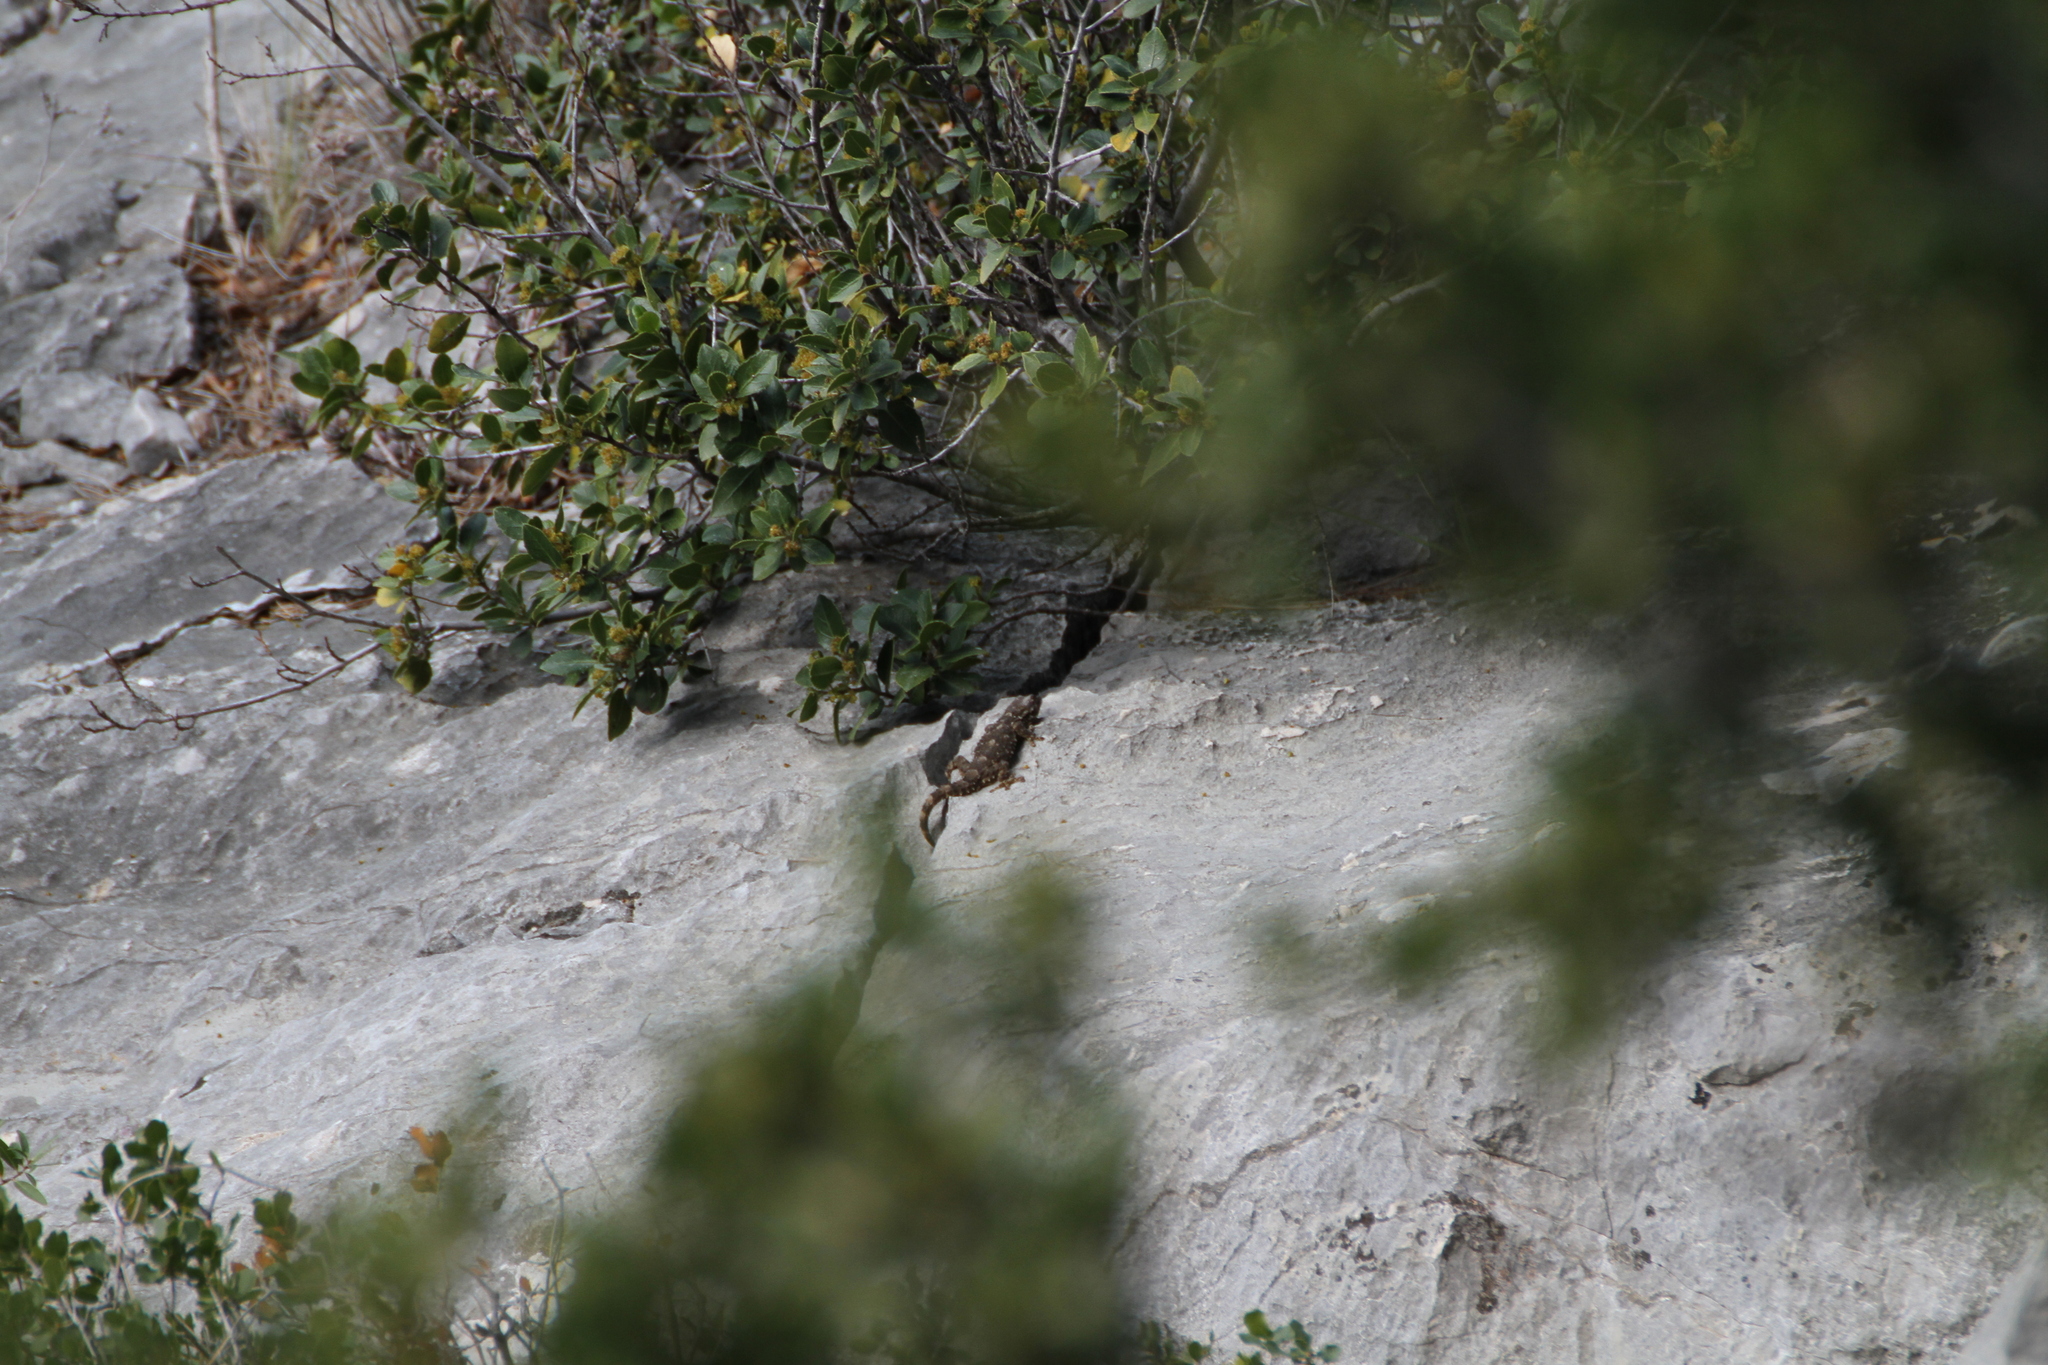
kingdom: Animalia
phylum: Chordata
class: Squamata
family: Phyllodactylidae
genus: Tarentola
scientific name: Tarentola mauritanica
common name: Moorish gecko
